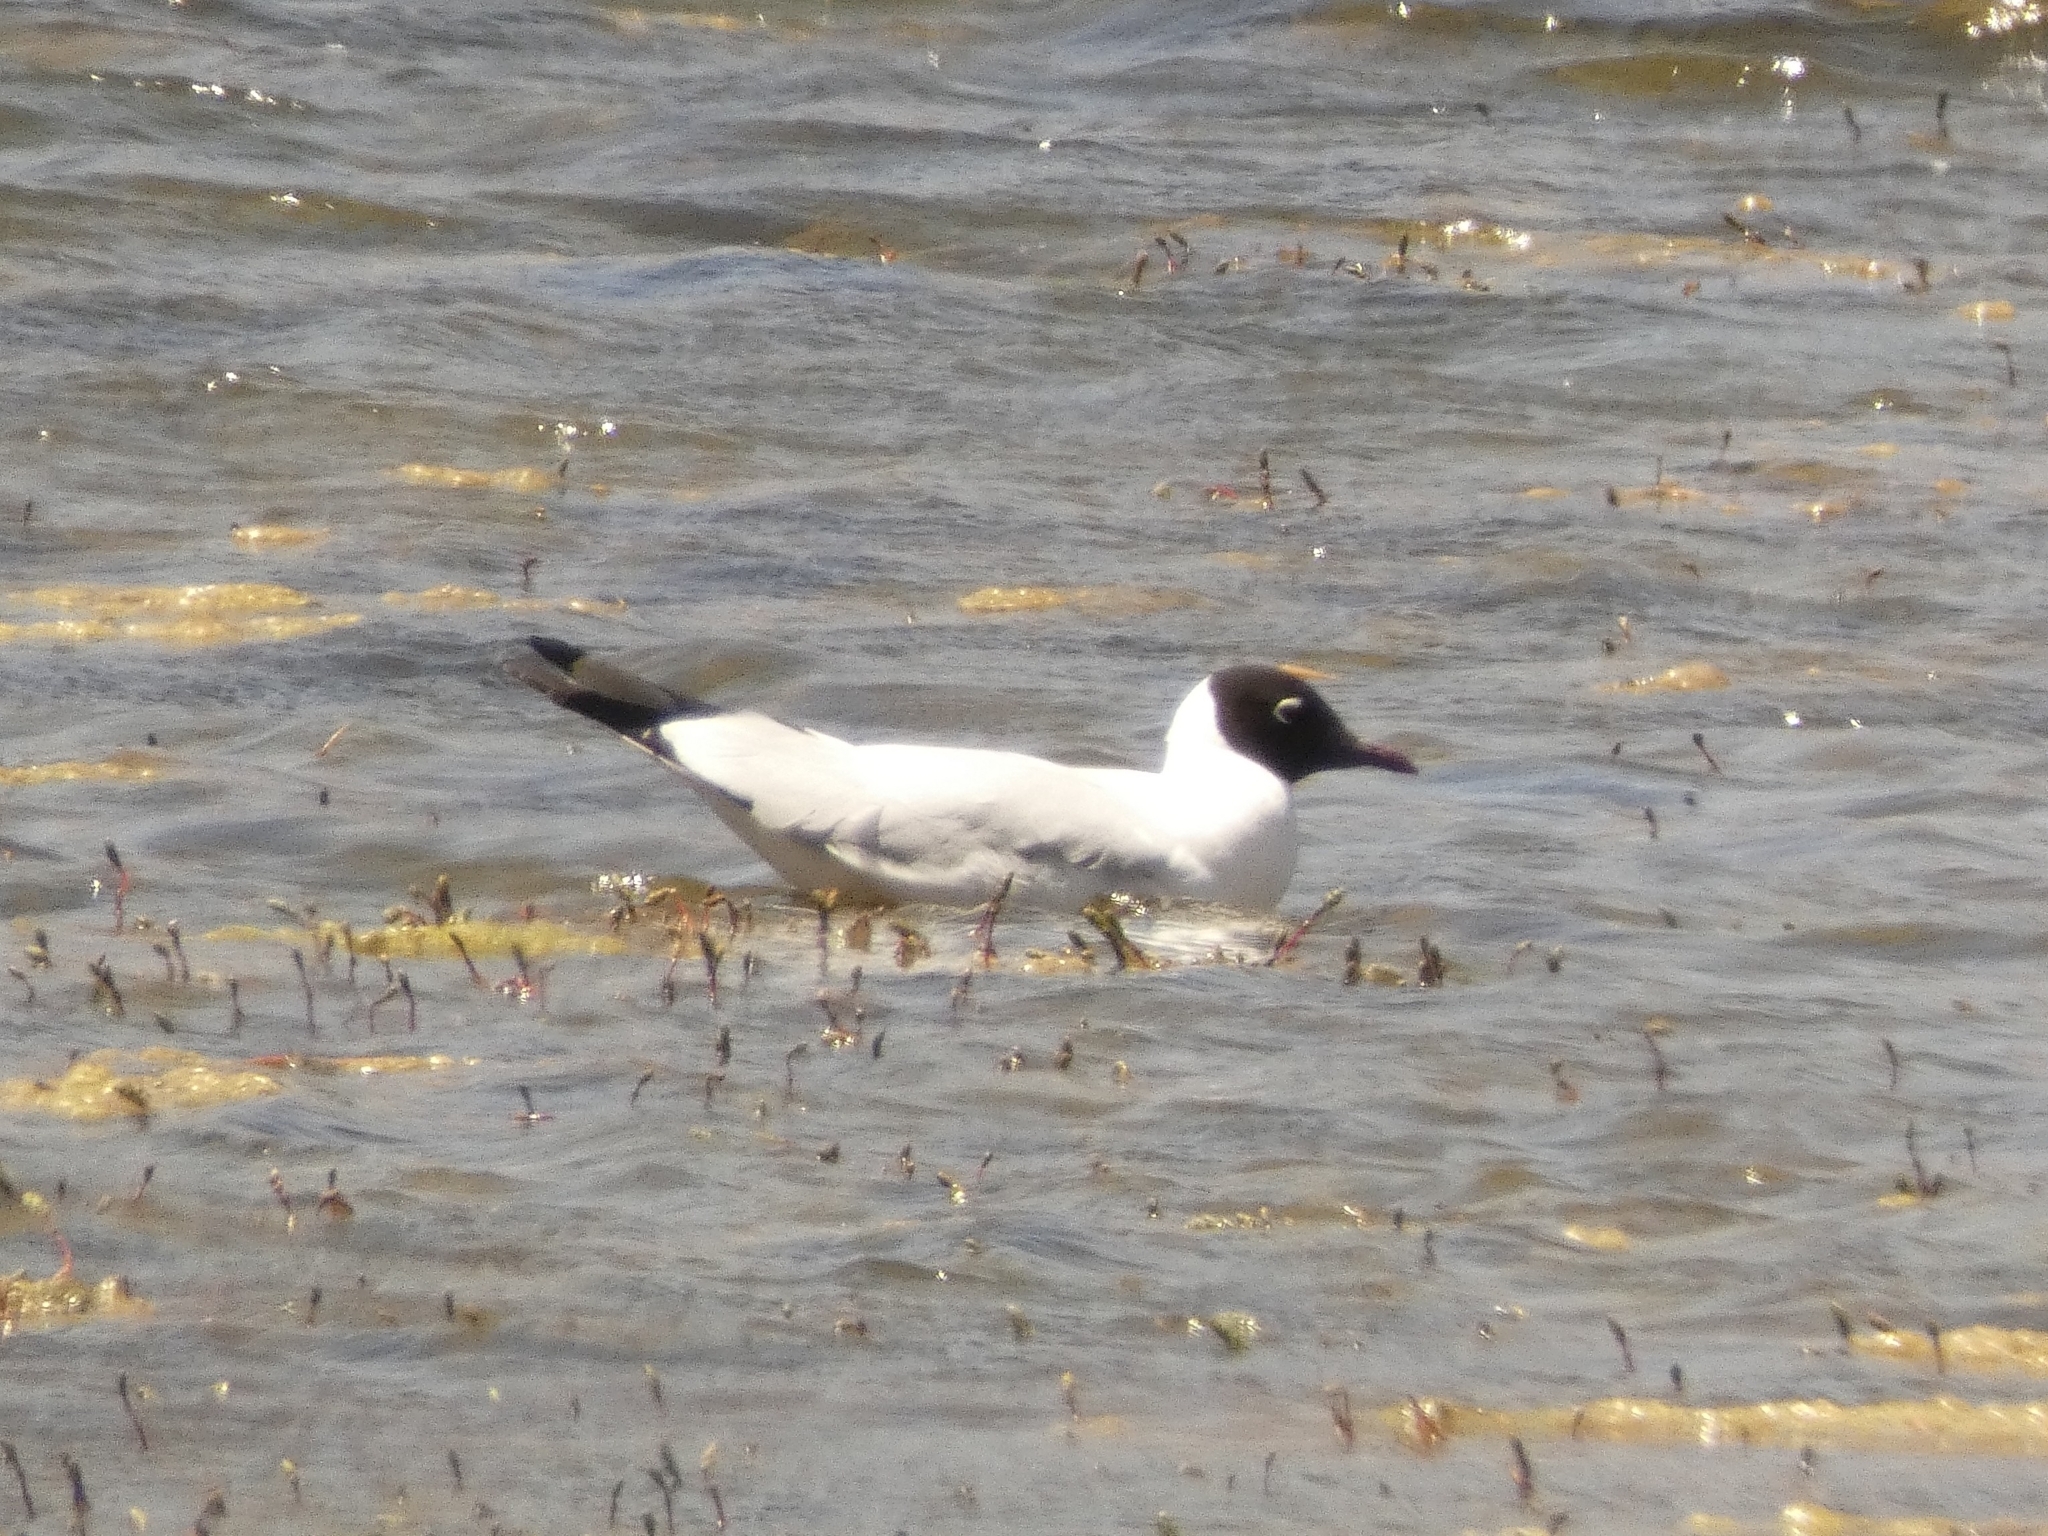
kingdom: Animalia
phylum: Chordata
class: Aves
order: Charadriiformes
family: Laridae
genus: Chroicocephalus
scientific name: Chroicocephalus serranus
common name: Andean gull
